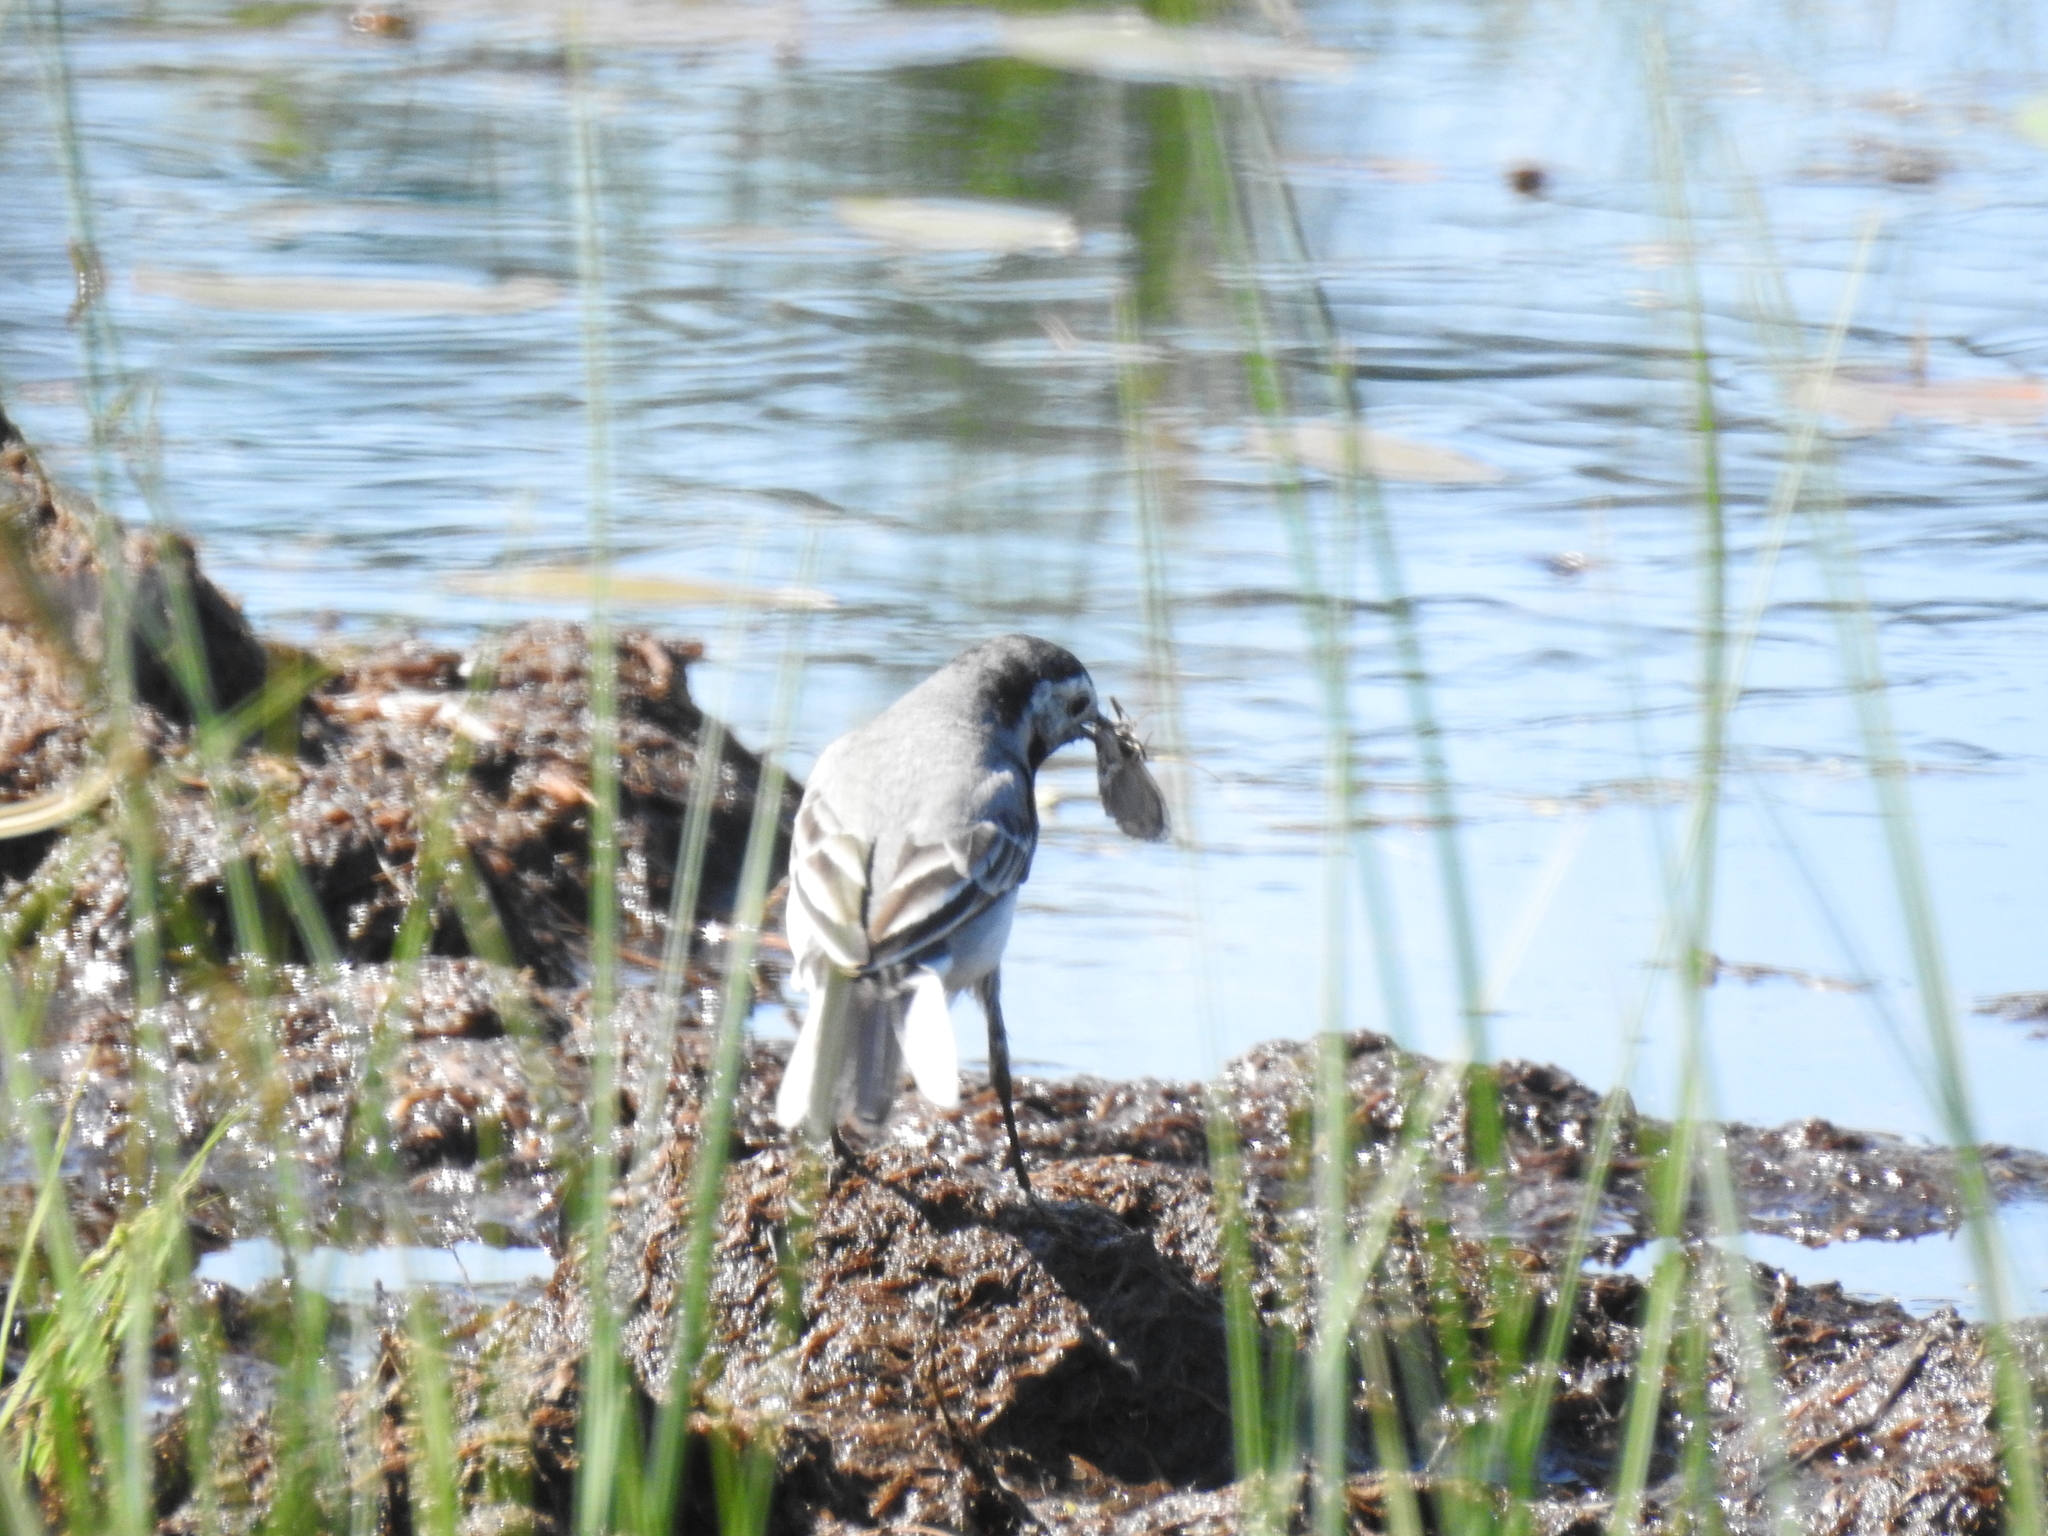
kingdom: Animalia
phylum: Chordata
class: Aves
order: Passeriformes
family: Motacillidae
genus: Motacilla
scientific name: Motacilla alba
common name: White wagtail
